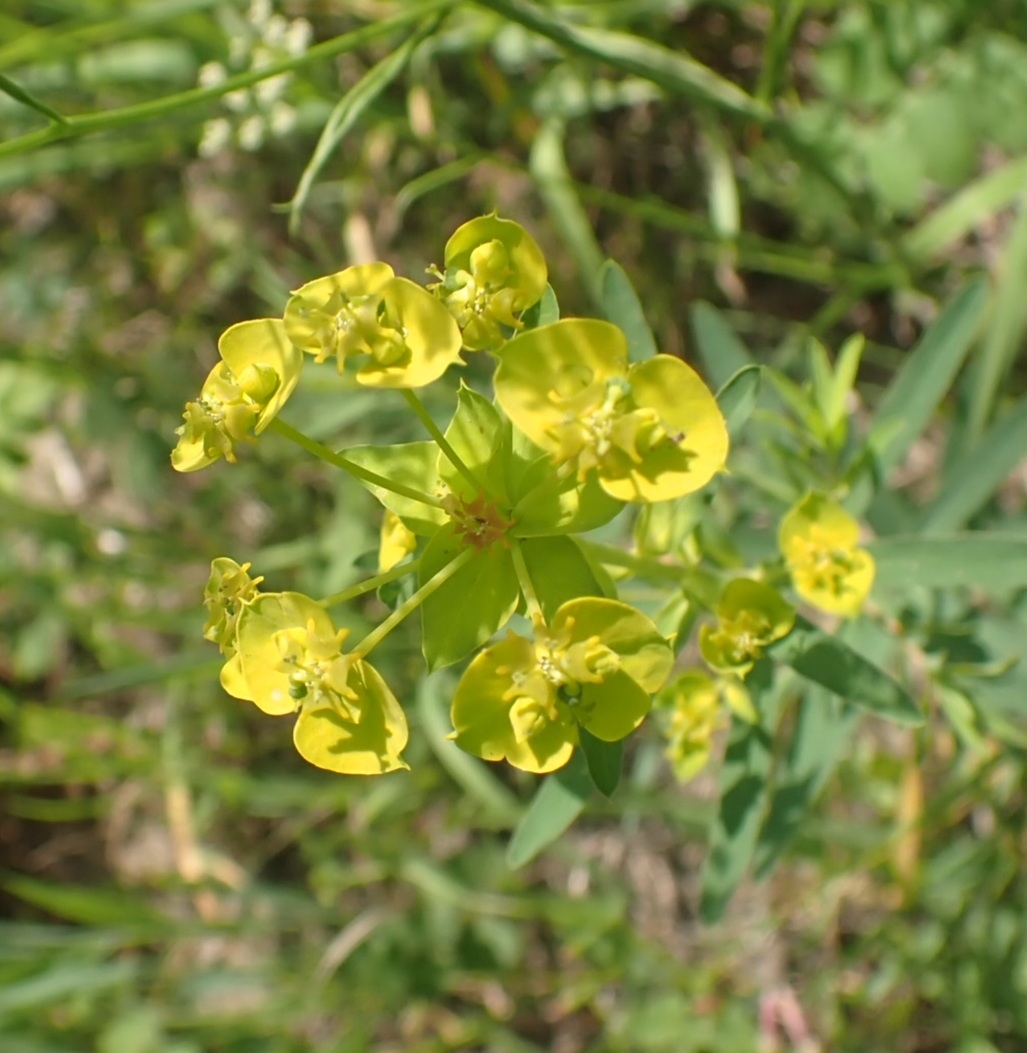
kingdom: Plantae
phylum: Tracheophyta
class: Magnoliopsida
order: Malpighiales
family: Euphorbiaceae
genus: Euphorbia
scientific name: Euphorbia virgata
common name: Leafy spurge
